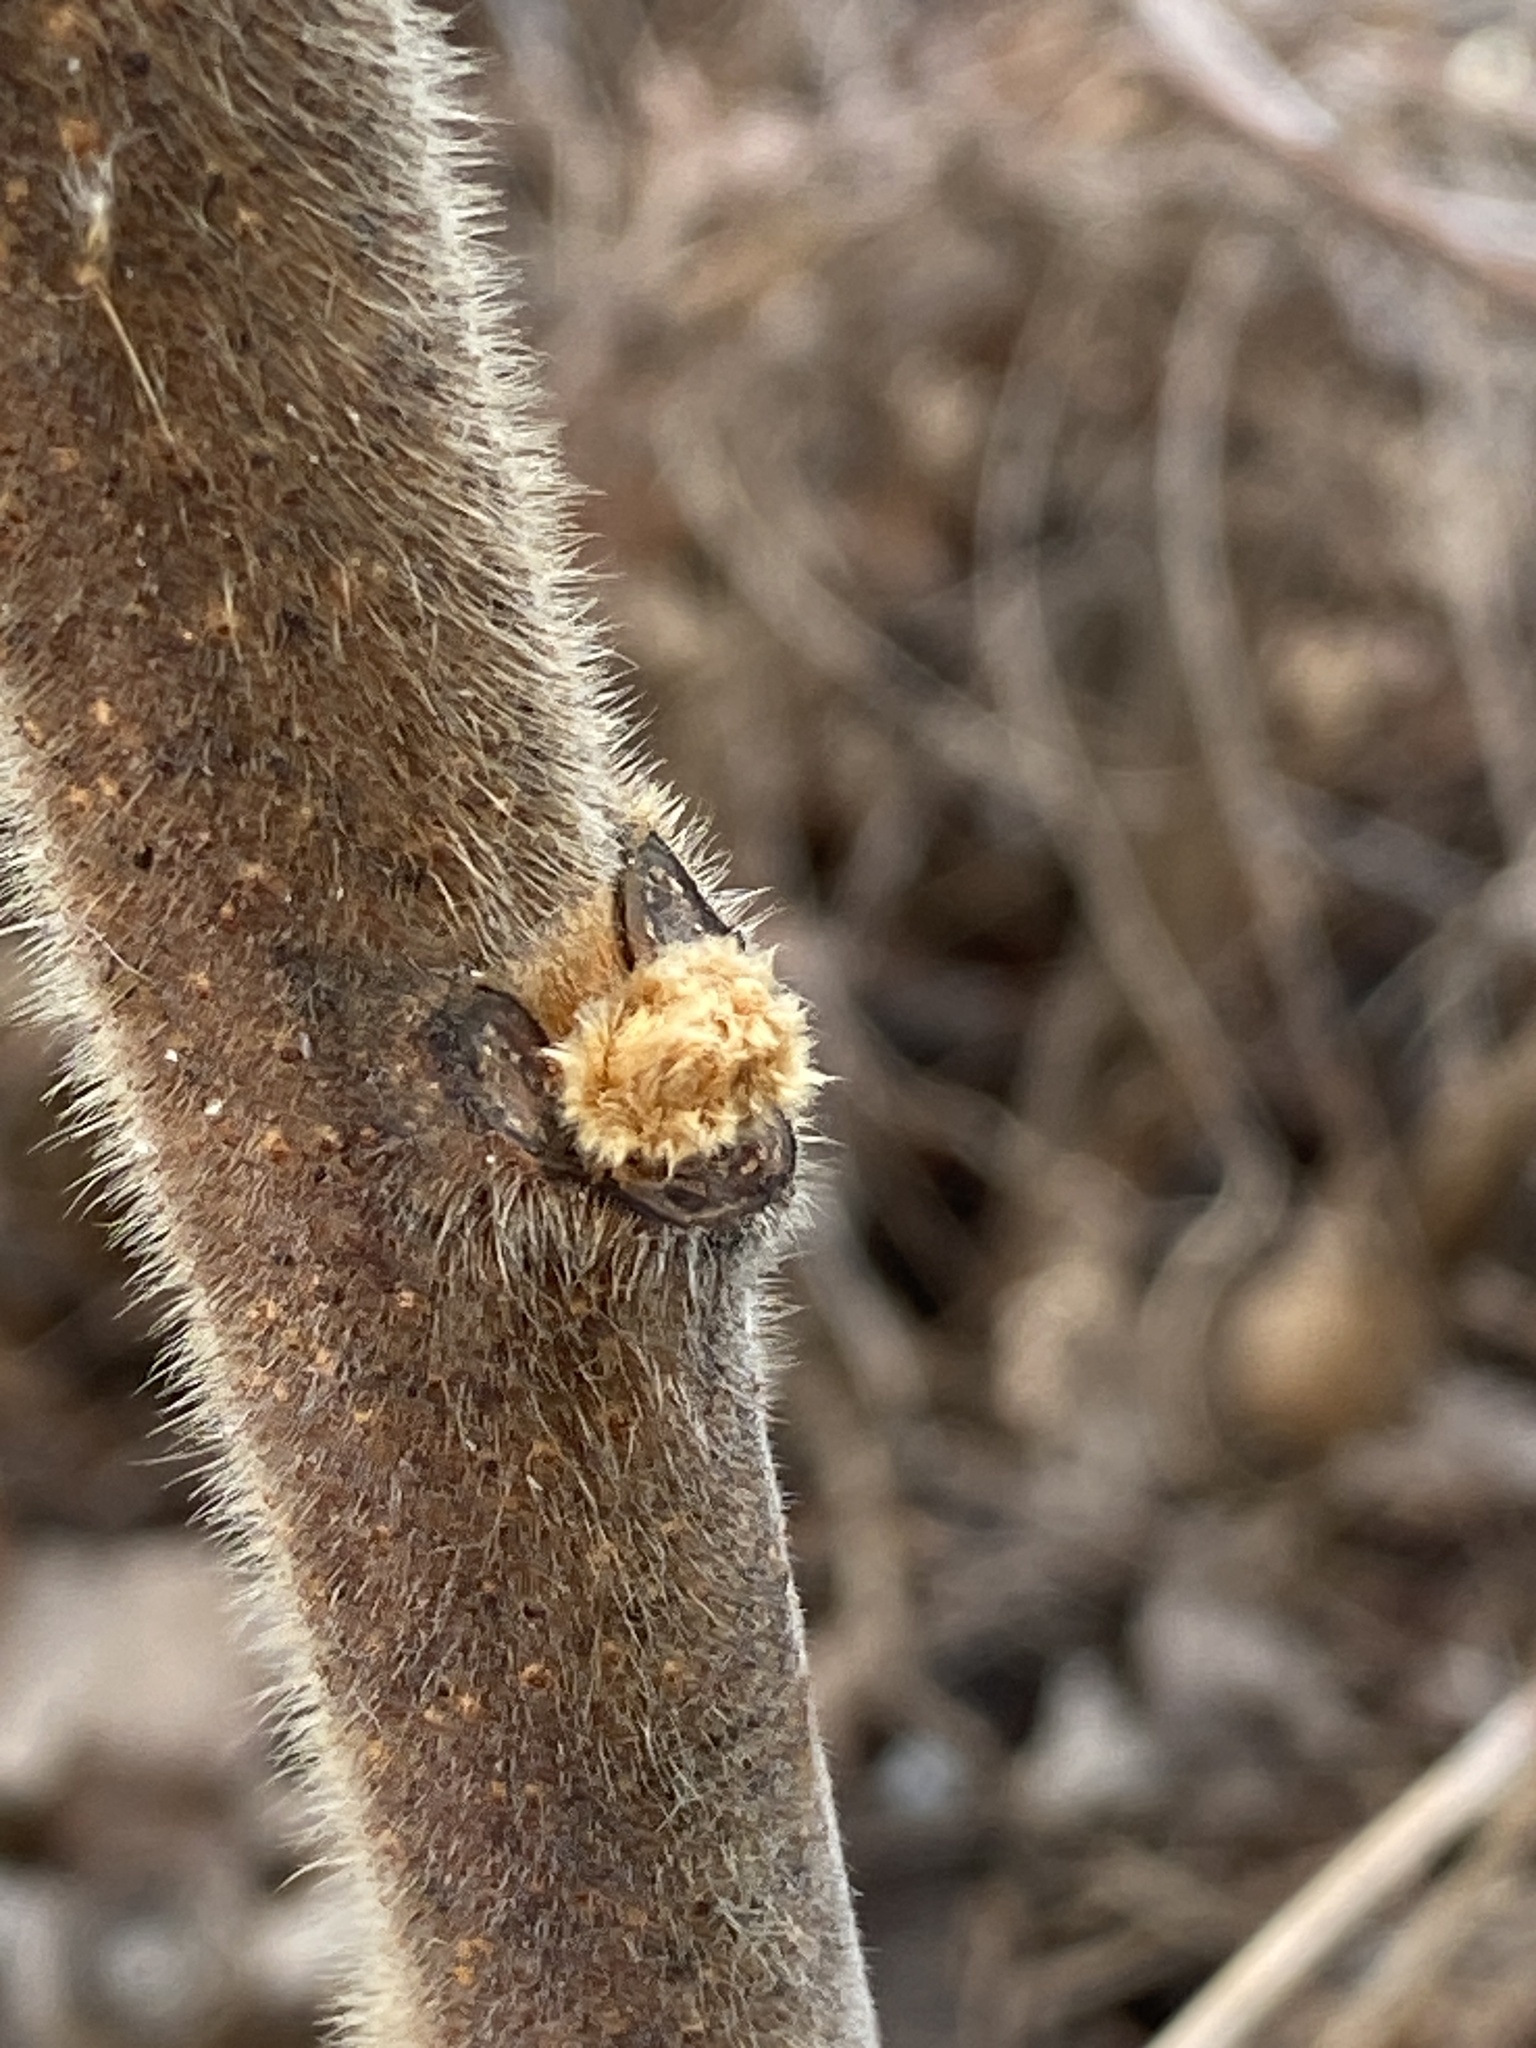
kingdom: Plantae
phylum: Tracheophyta
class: Magnoliopsida
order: Sapindales
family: Anacardiaceae
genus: Rhus
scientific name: Rhus typhina
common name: Staghorn sumac
